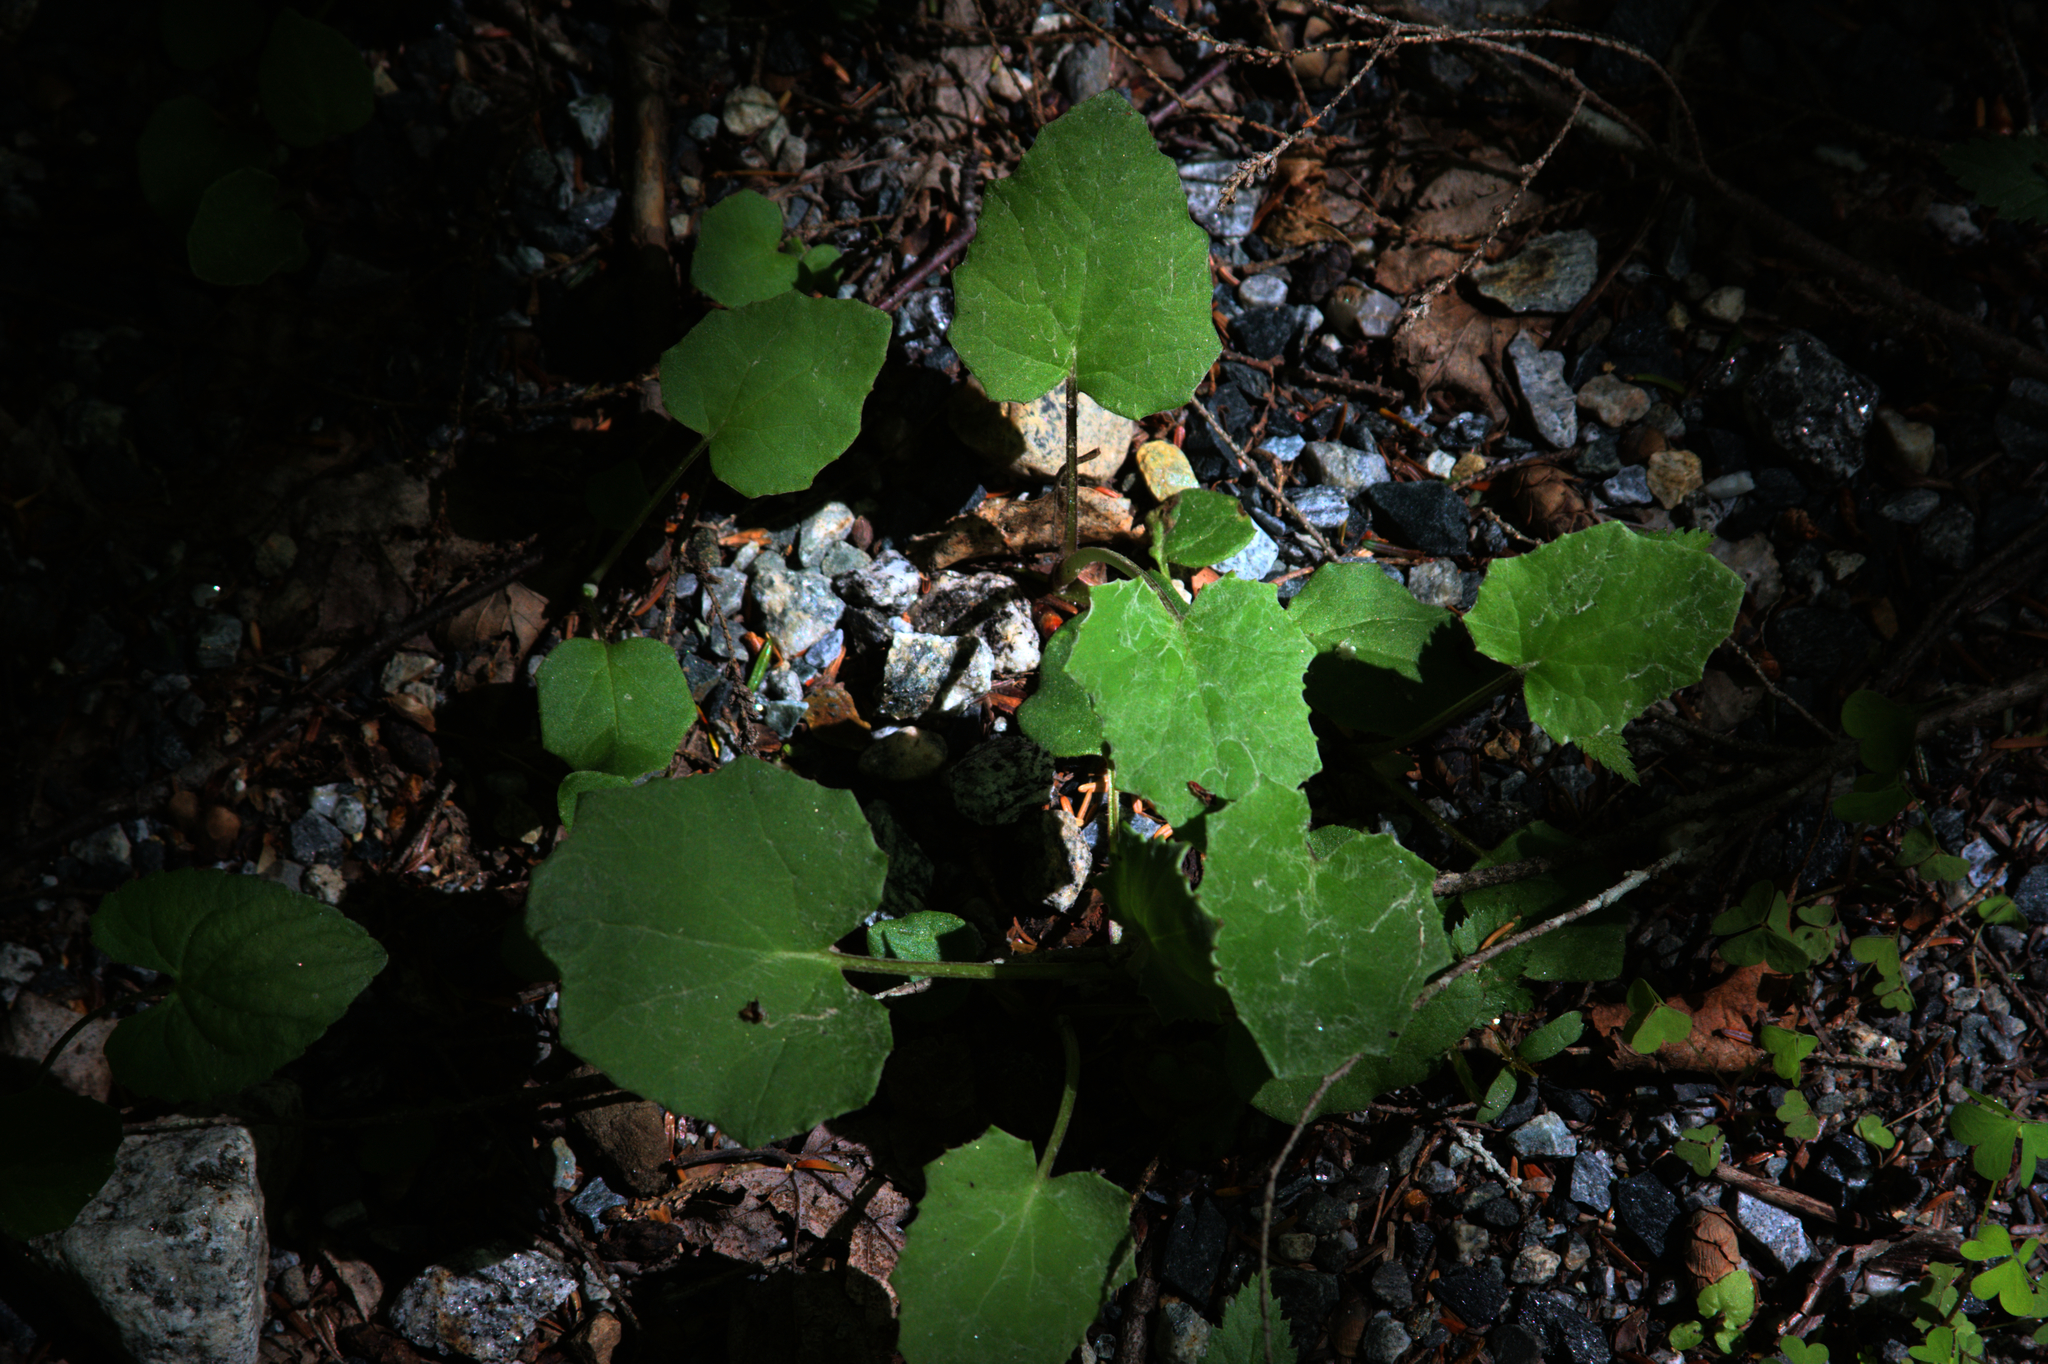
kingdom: Plantae
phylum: Tracheophyta
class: Magnoliopsida
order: Asterales
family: Asteraceae
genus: Tussilago
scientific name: Tussilago farfara
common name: Coltsfoot
